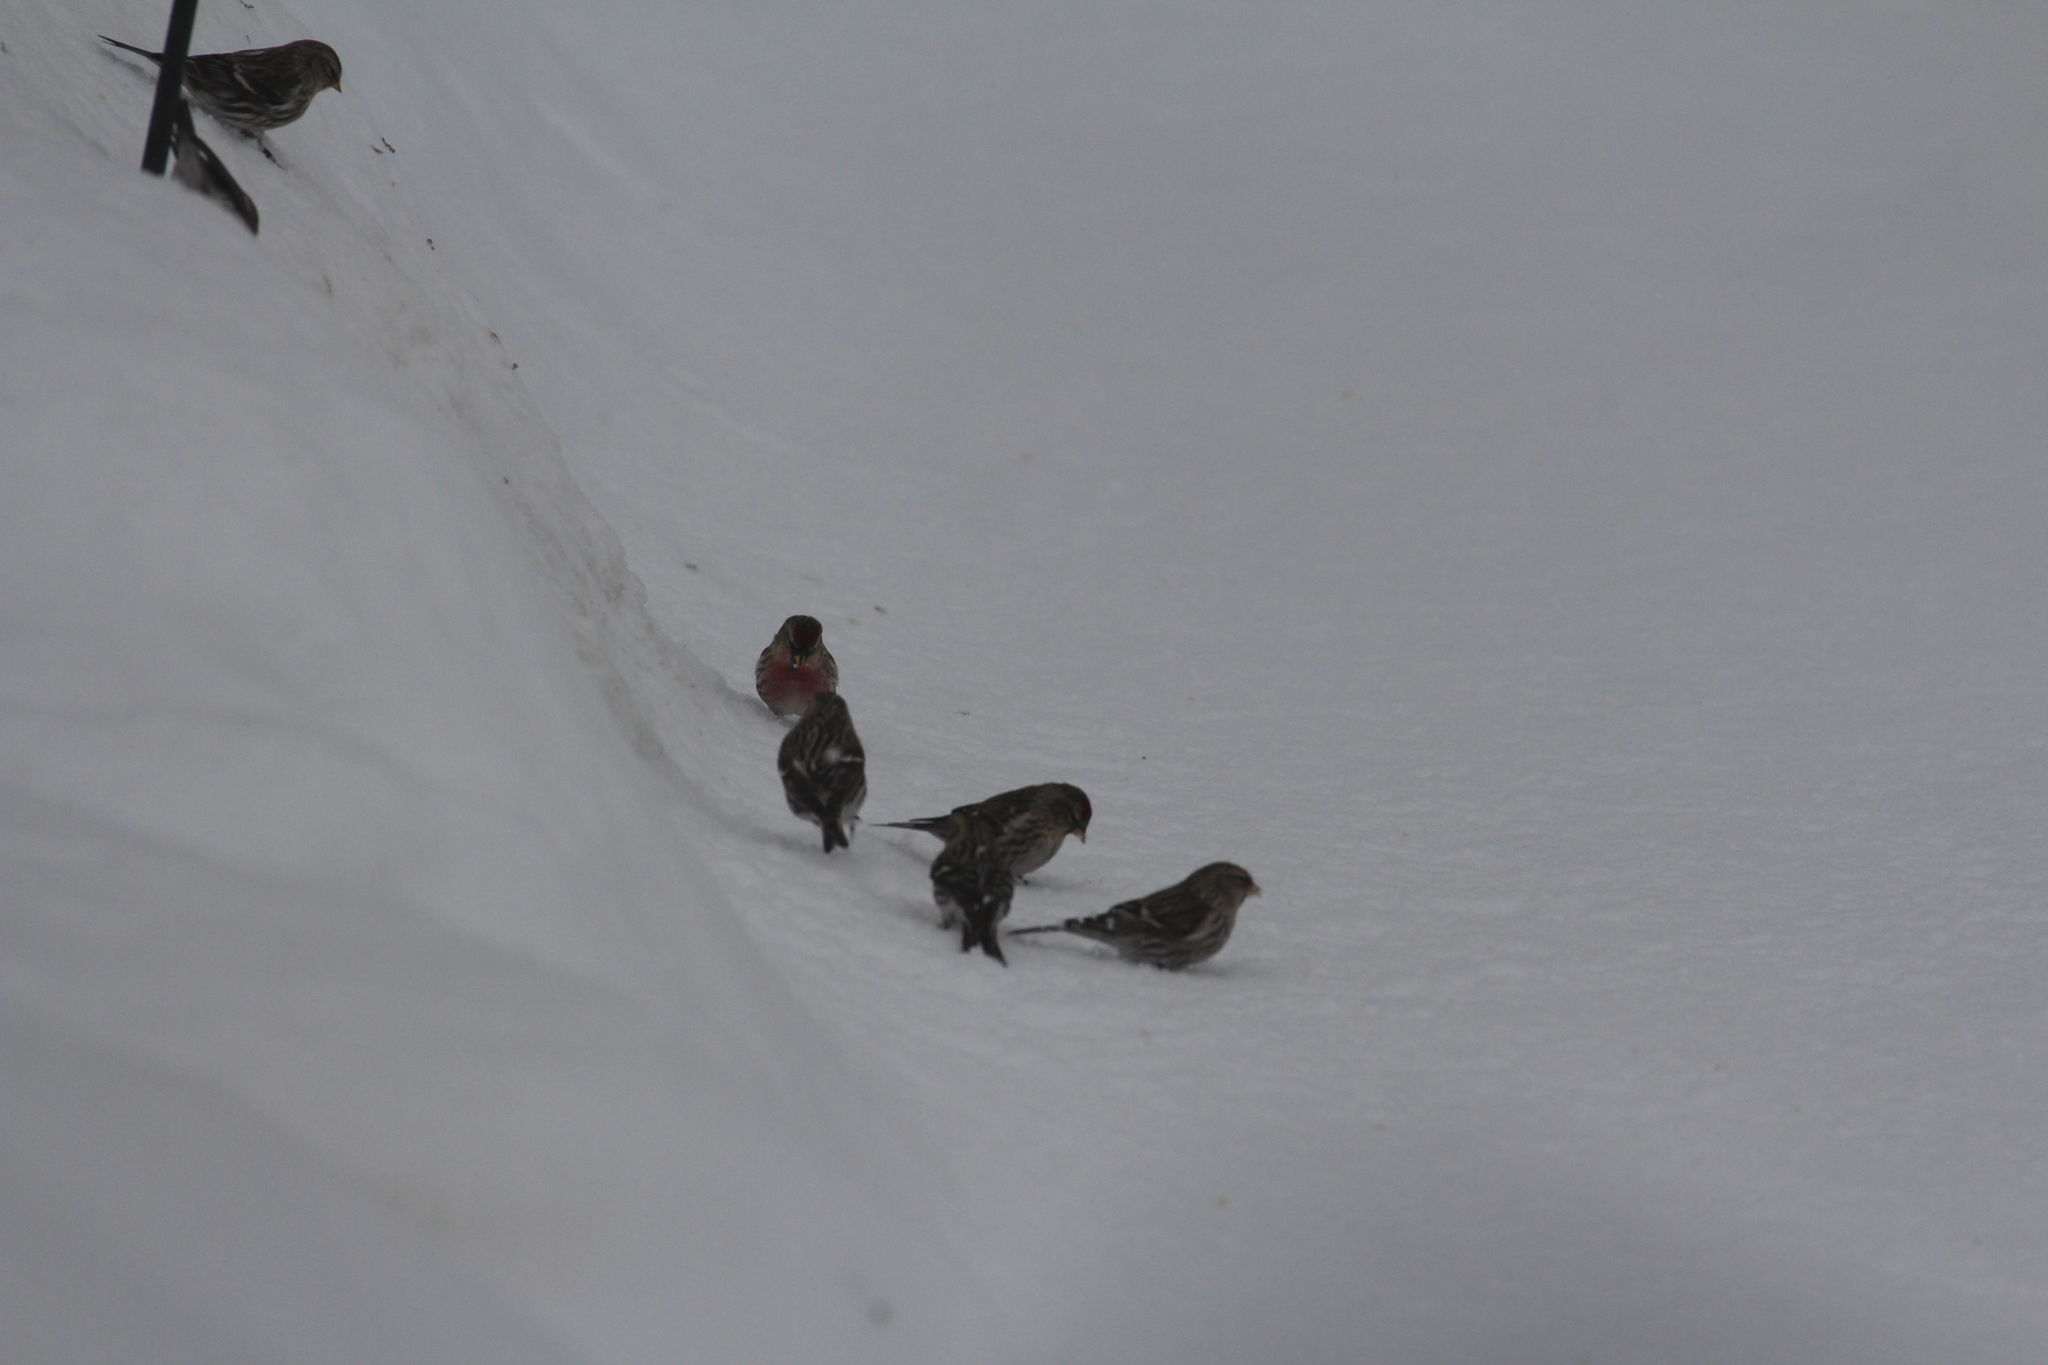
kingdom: Animalia
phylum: Chordata
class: Aves
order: Passeriformes
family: Fringillidae
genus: Acanthis
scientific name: Acanthis flammea
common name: Common redpoll
